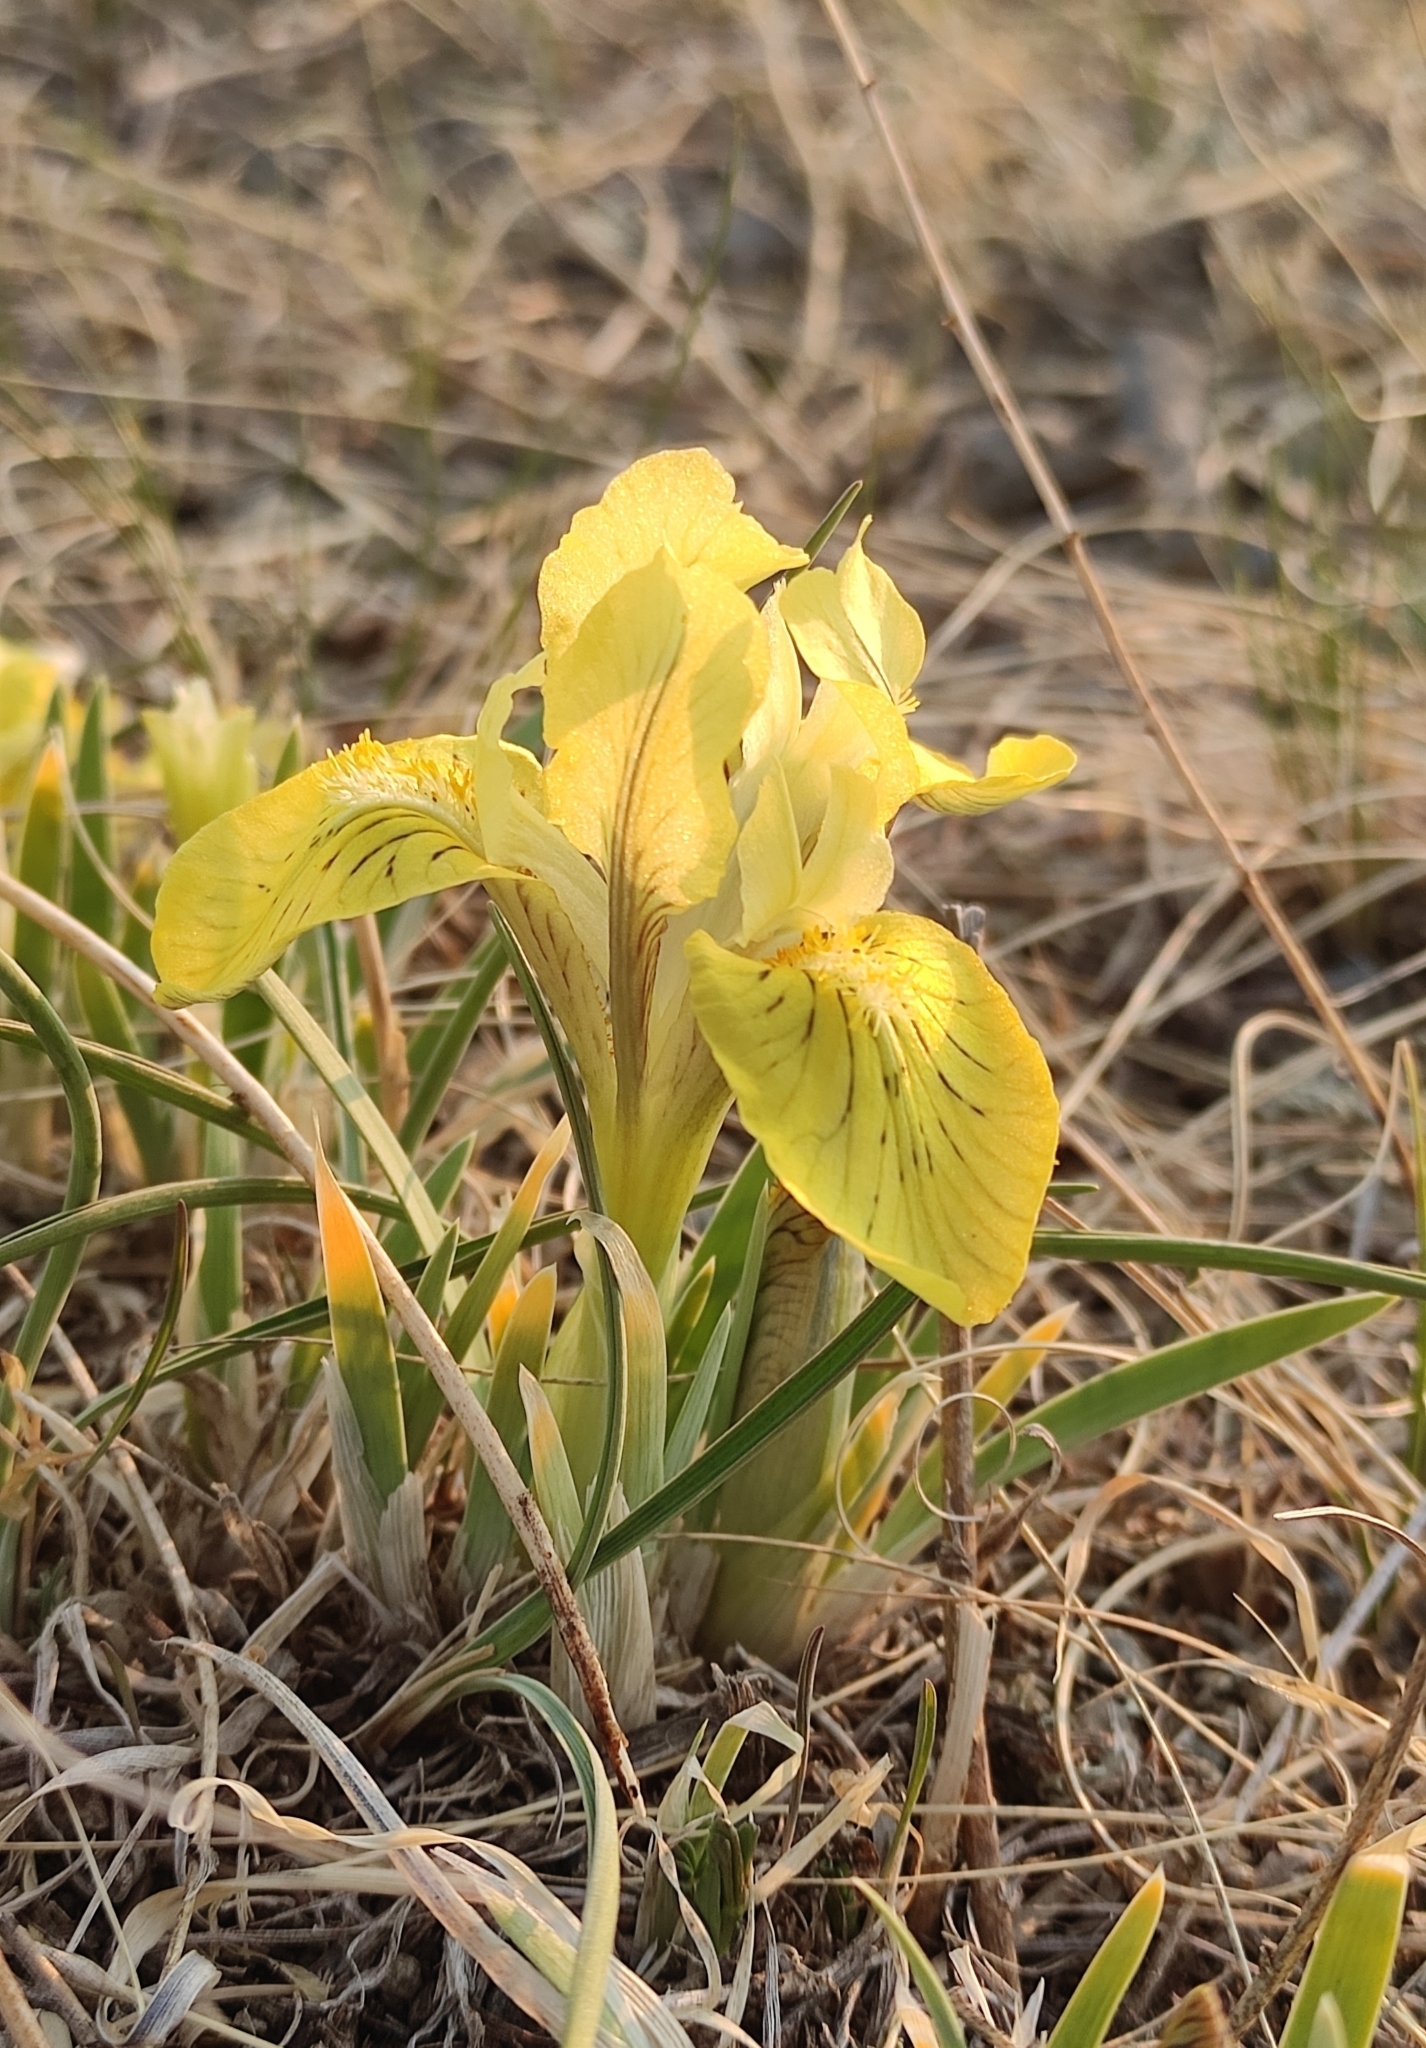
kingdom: Plantae
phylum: Tracheophyta
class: Liliopsida
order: Asparagales
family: Iridaceae
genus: Iris
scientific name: Iris potaninii
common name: Curl-sheath iris
